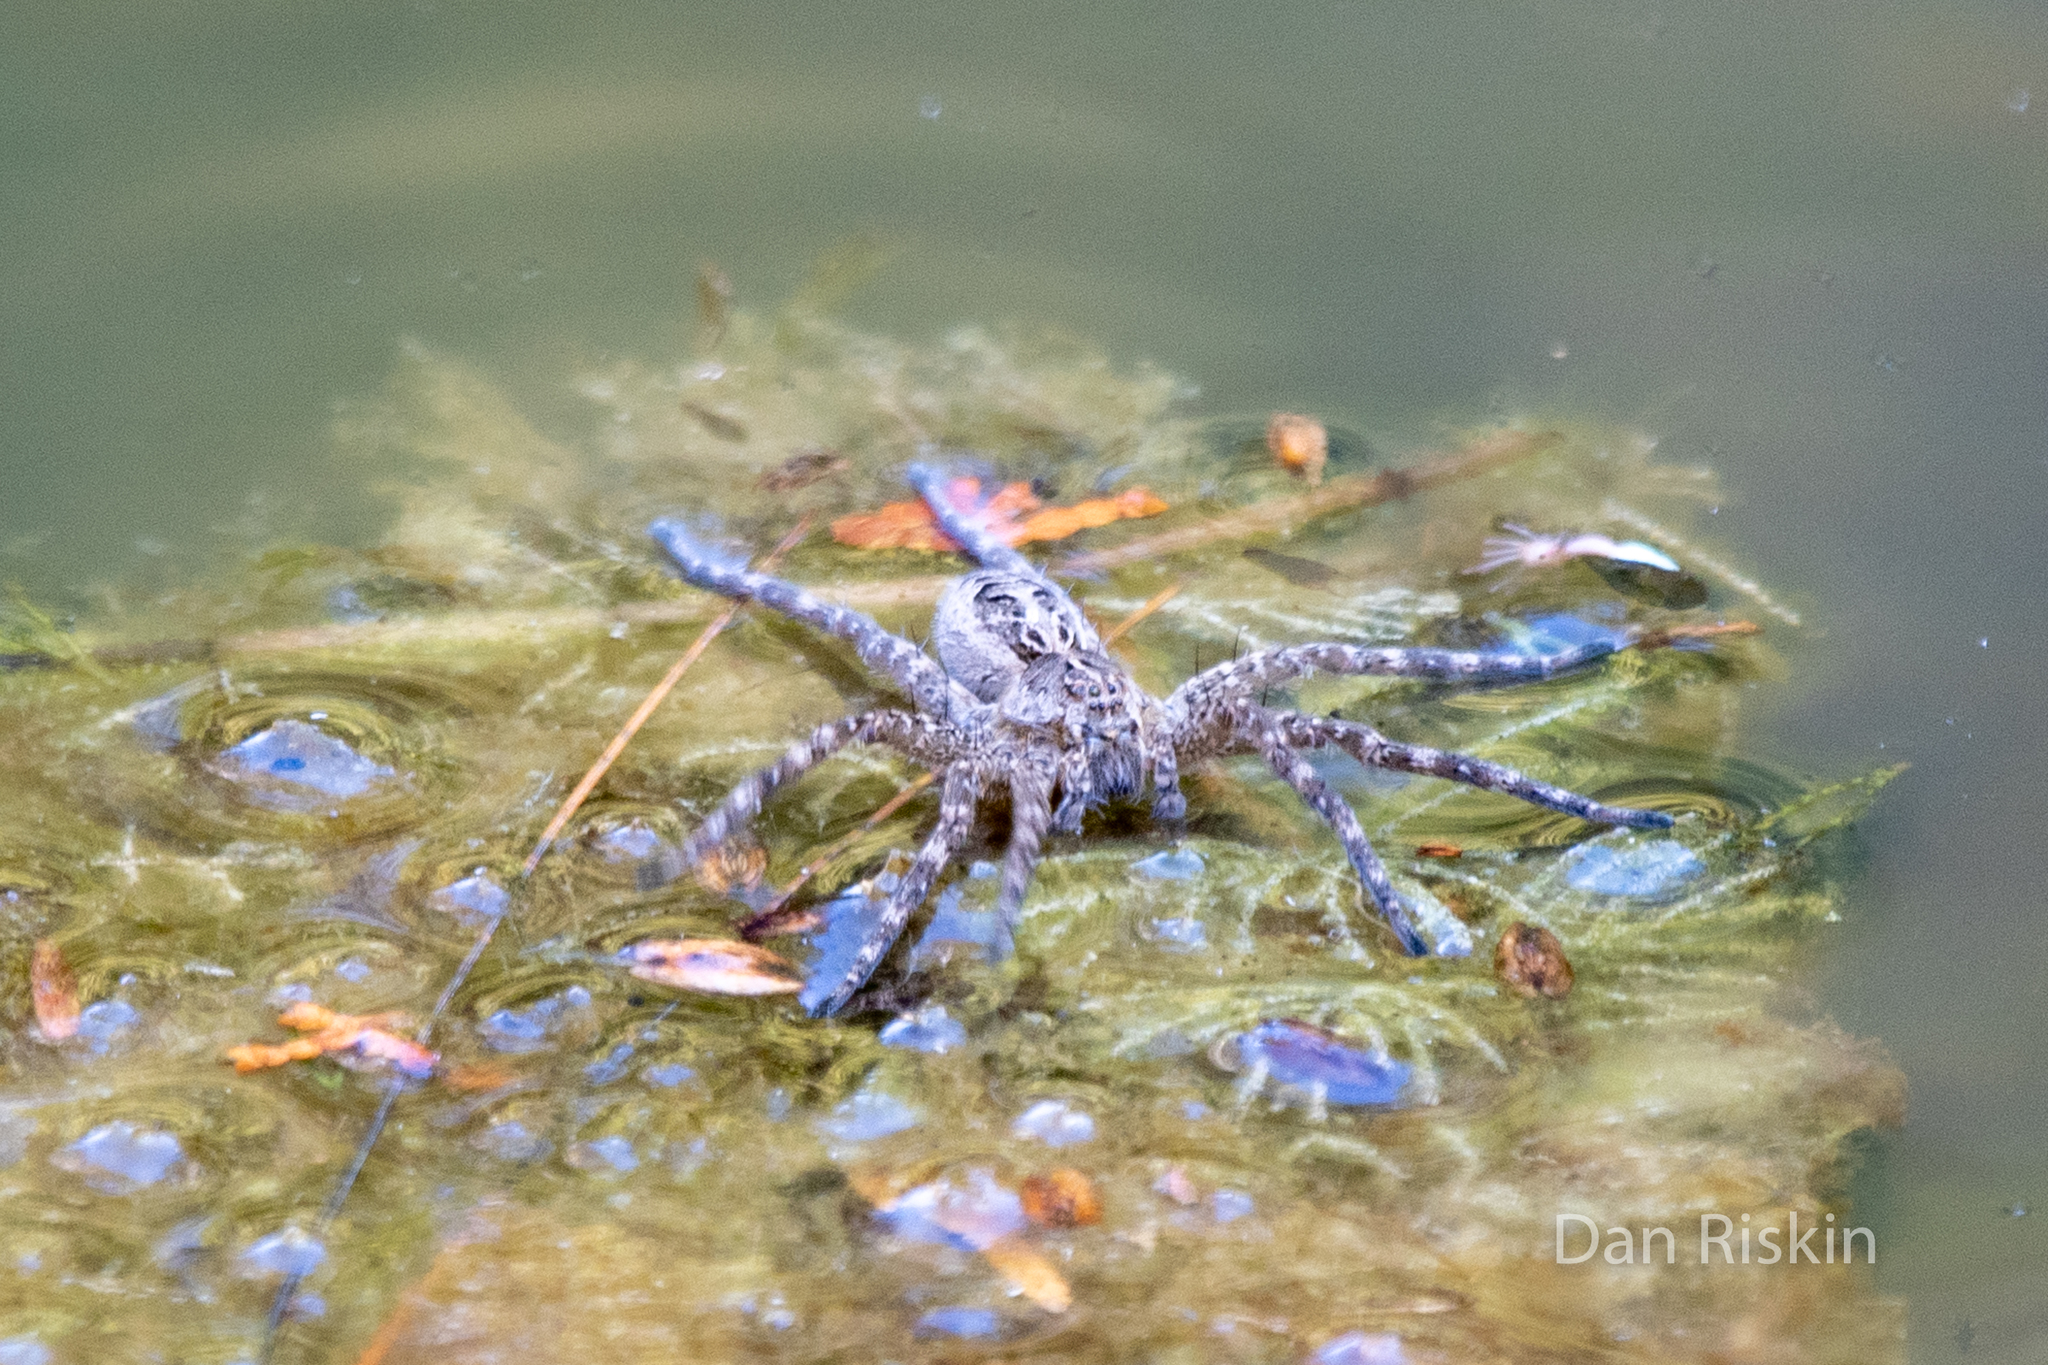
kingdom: Animalia
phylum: Arthropoda
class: Arachnida
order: Araneae
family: Pisauridae
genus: Dolomedes
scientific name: Dolomedes scriptus
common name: Striped fishing spider
